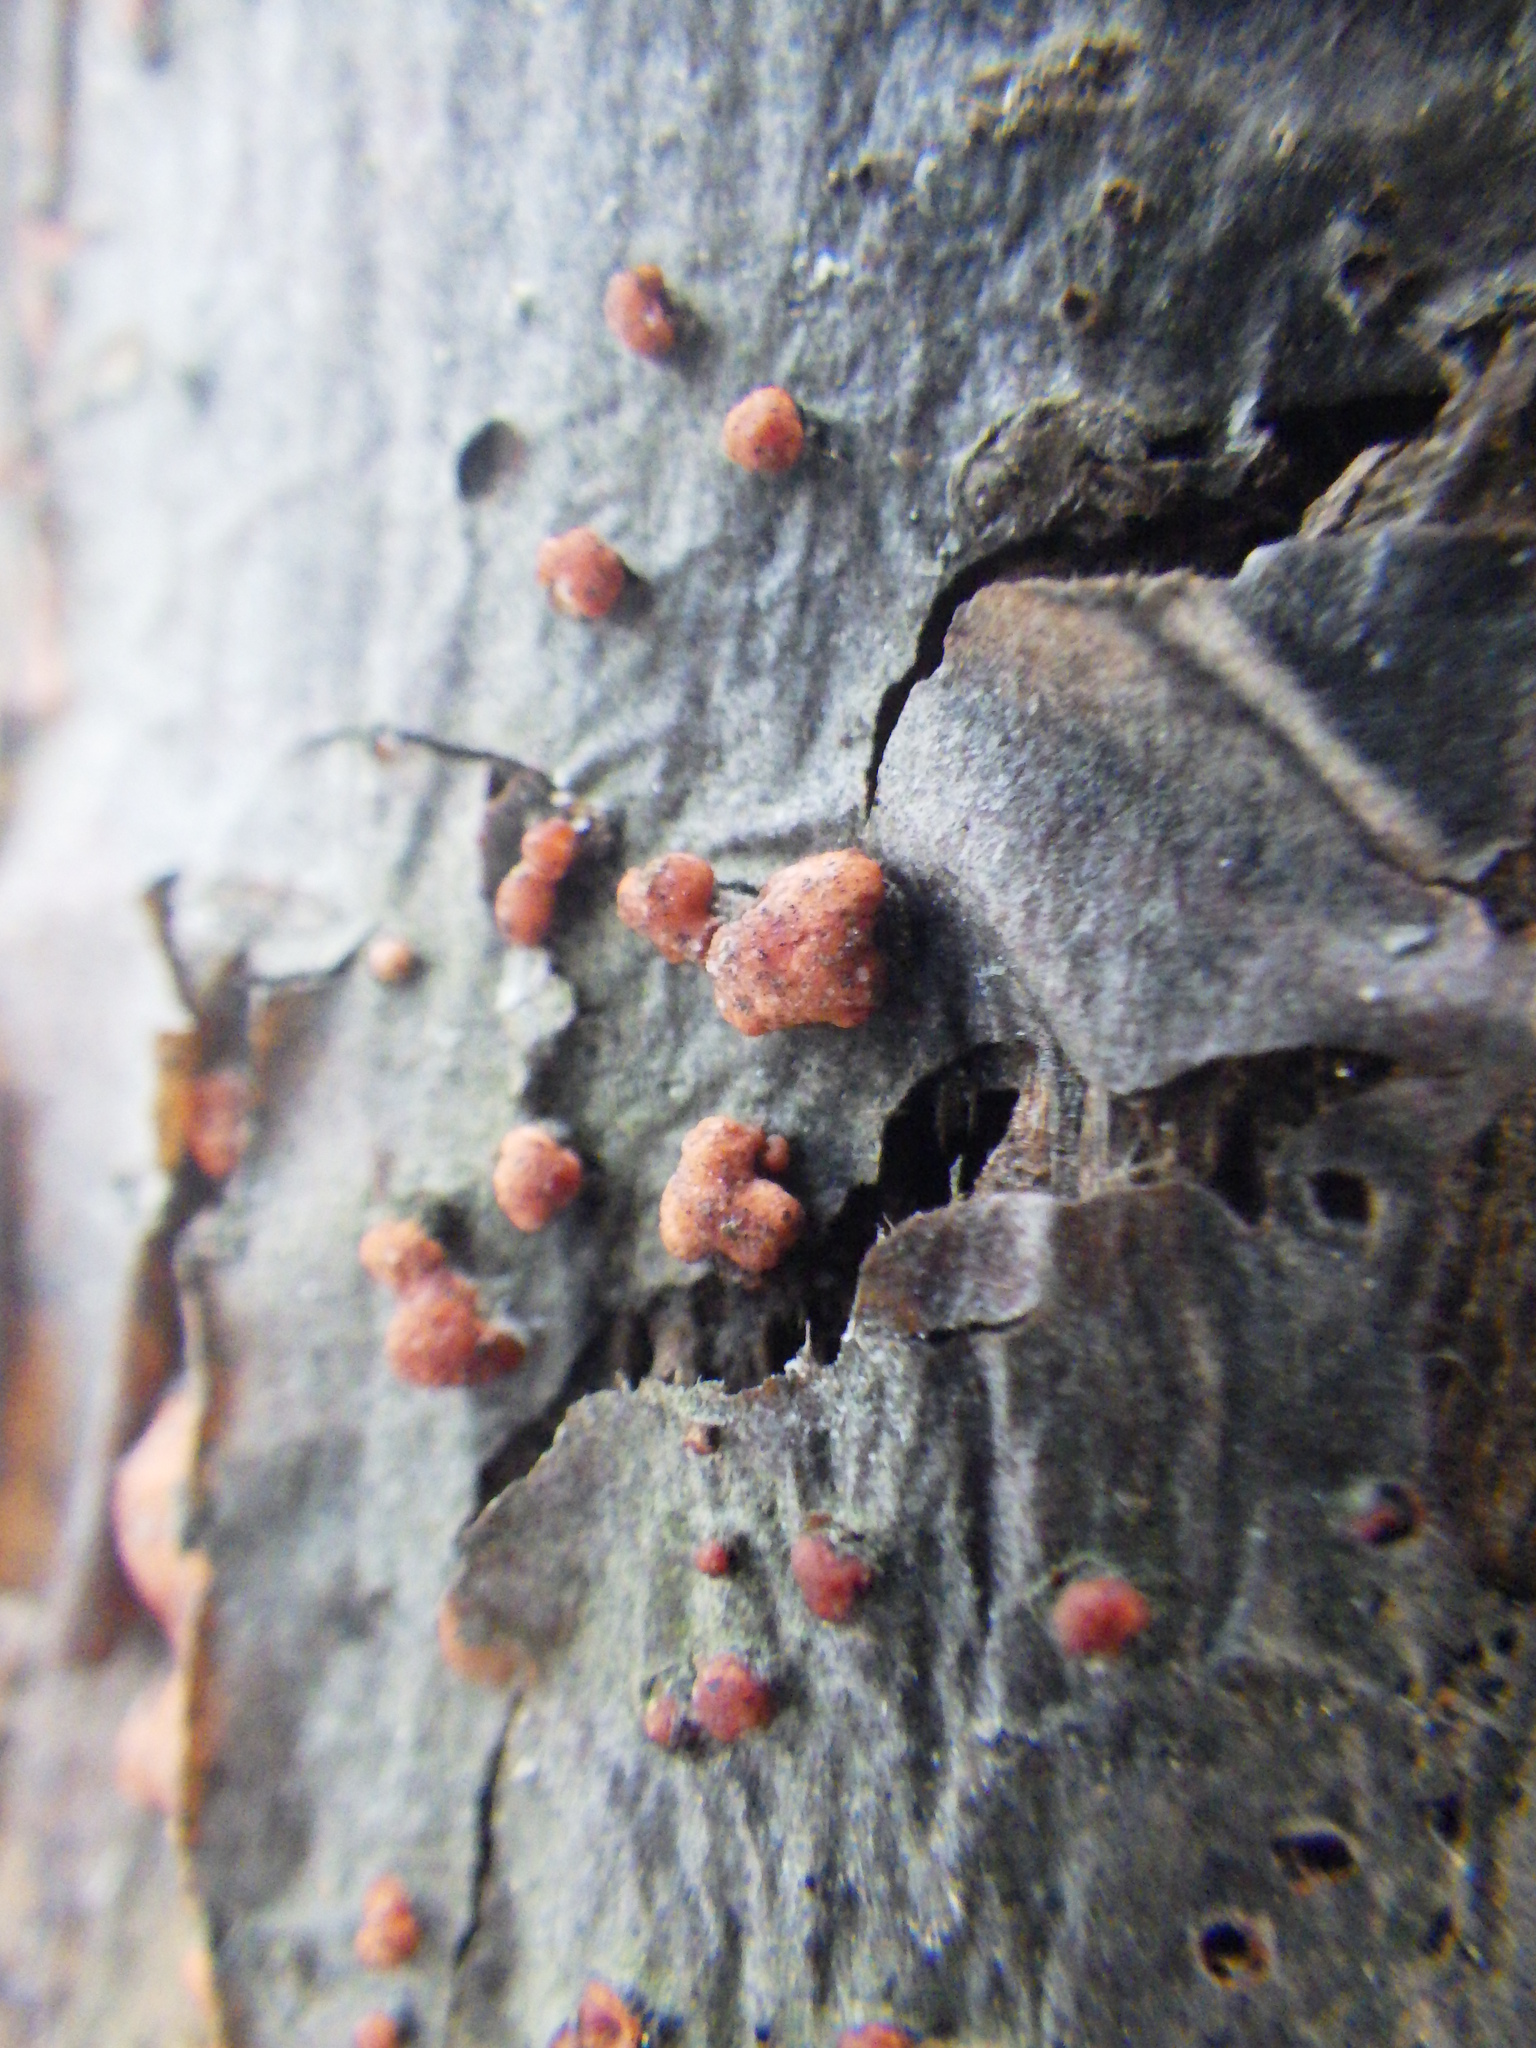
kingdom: Fungi
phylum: Ascomycota
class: Sordariomycetes
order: Hypocreales
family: Nectriaceae
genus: Nectria
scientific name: Nectria cinnabarina
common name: Coral spot
